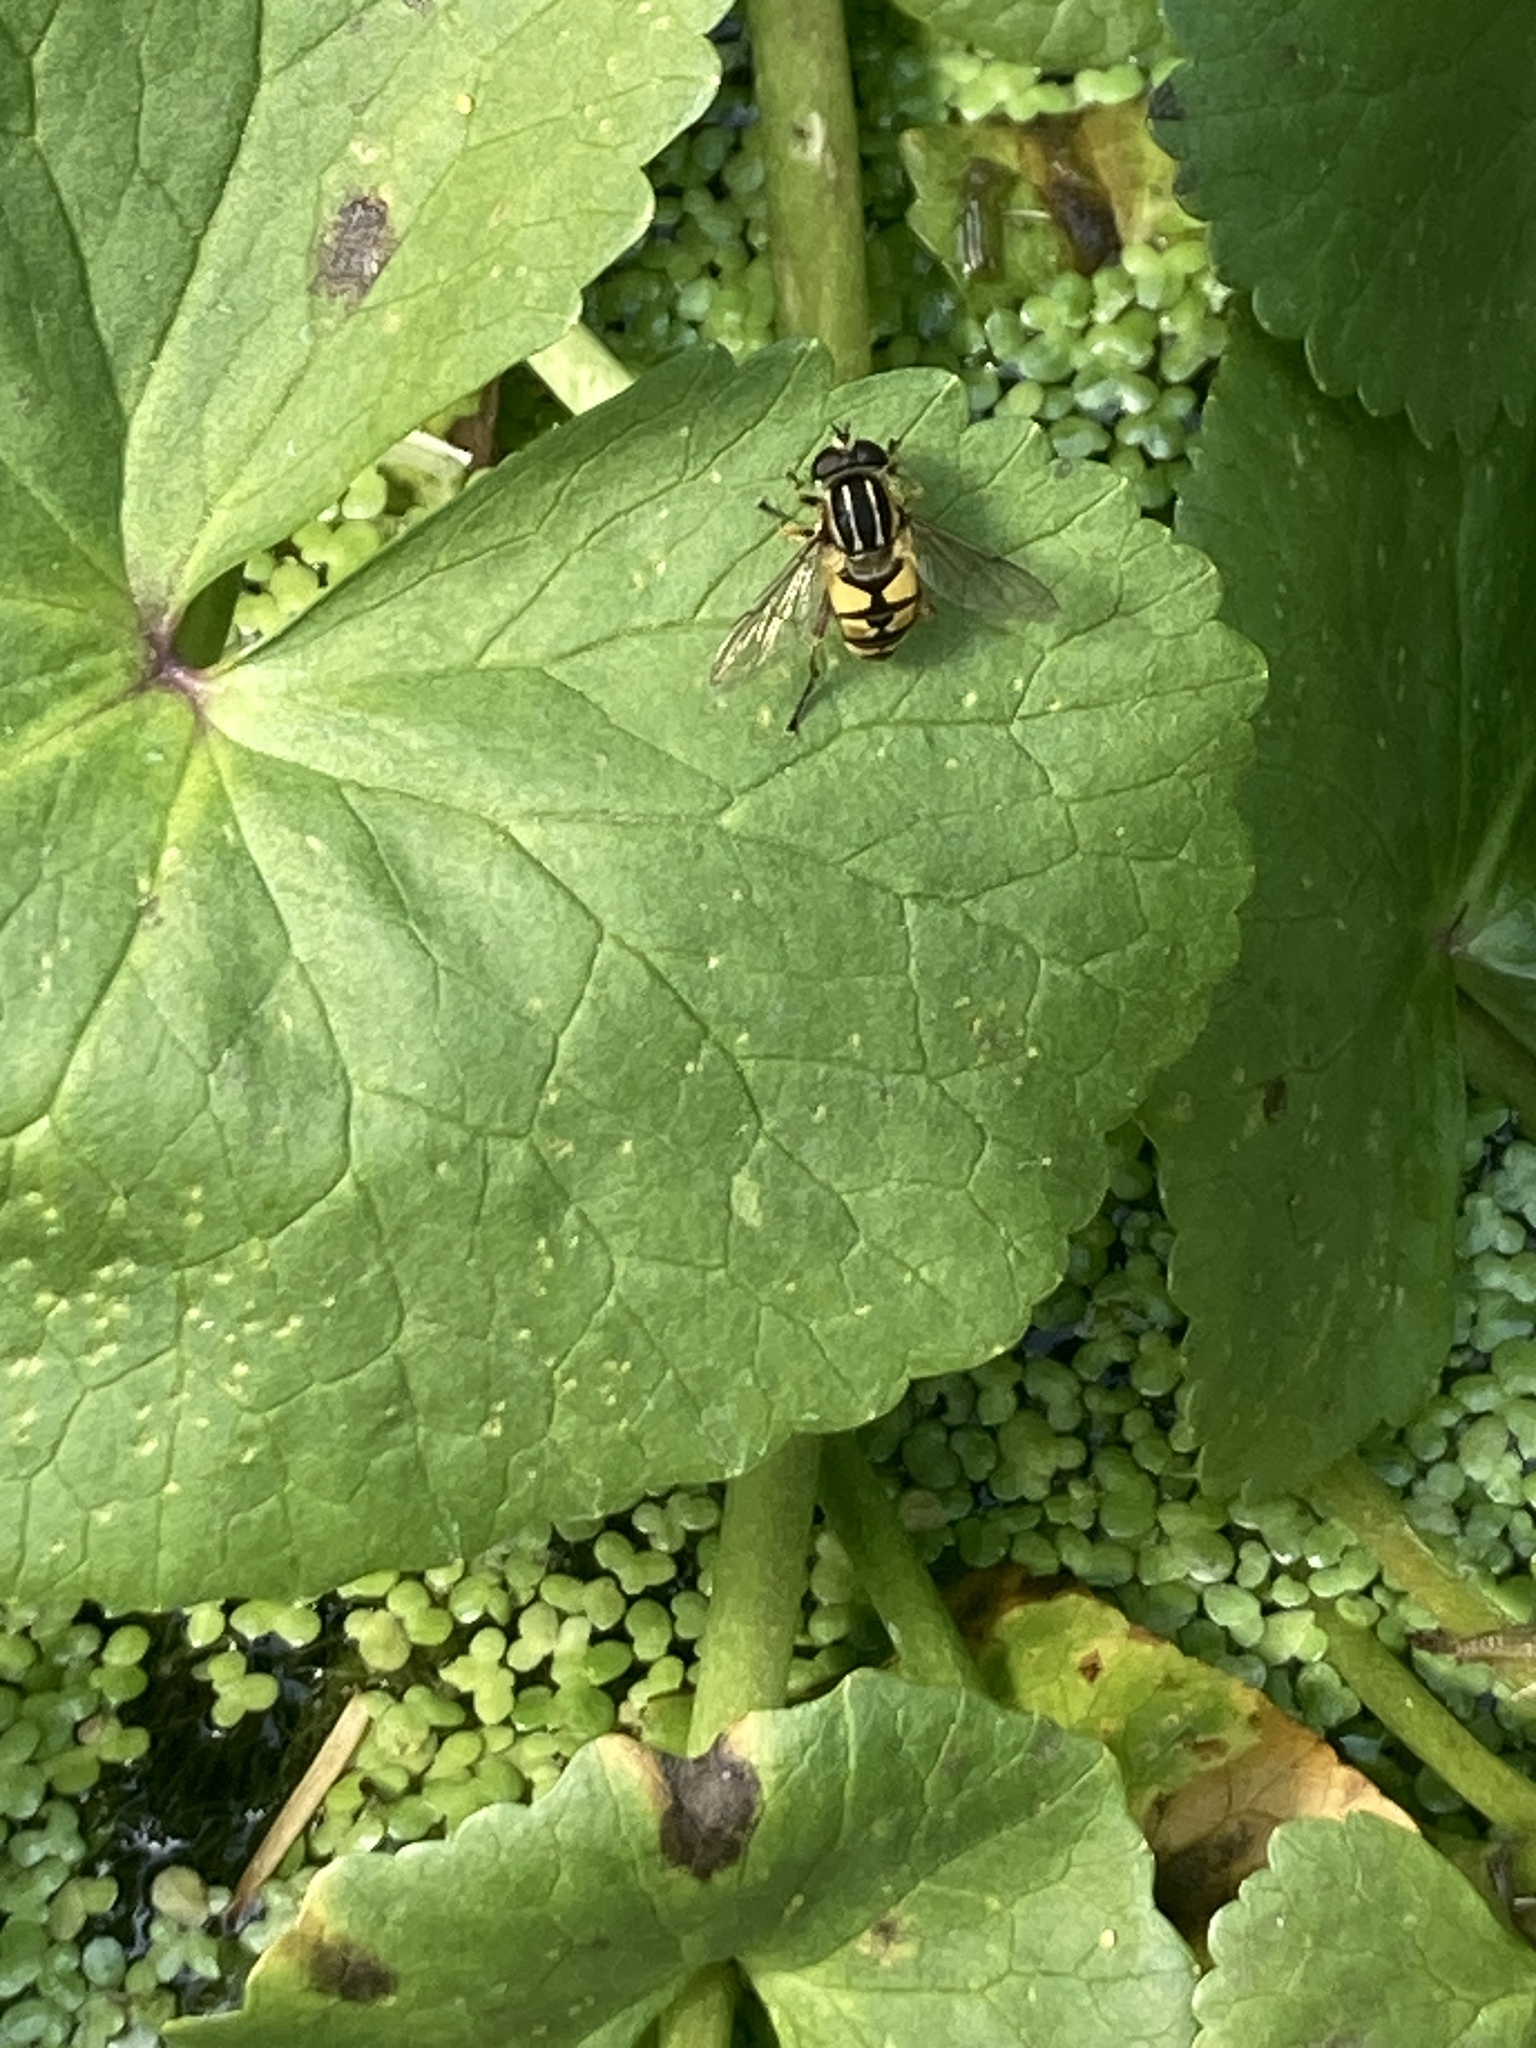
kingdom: Animalia
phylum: Arthropoda
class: Insecta
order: Diptera
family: Syrphidae
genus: Helophilus
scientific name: Helophilus pendulus
